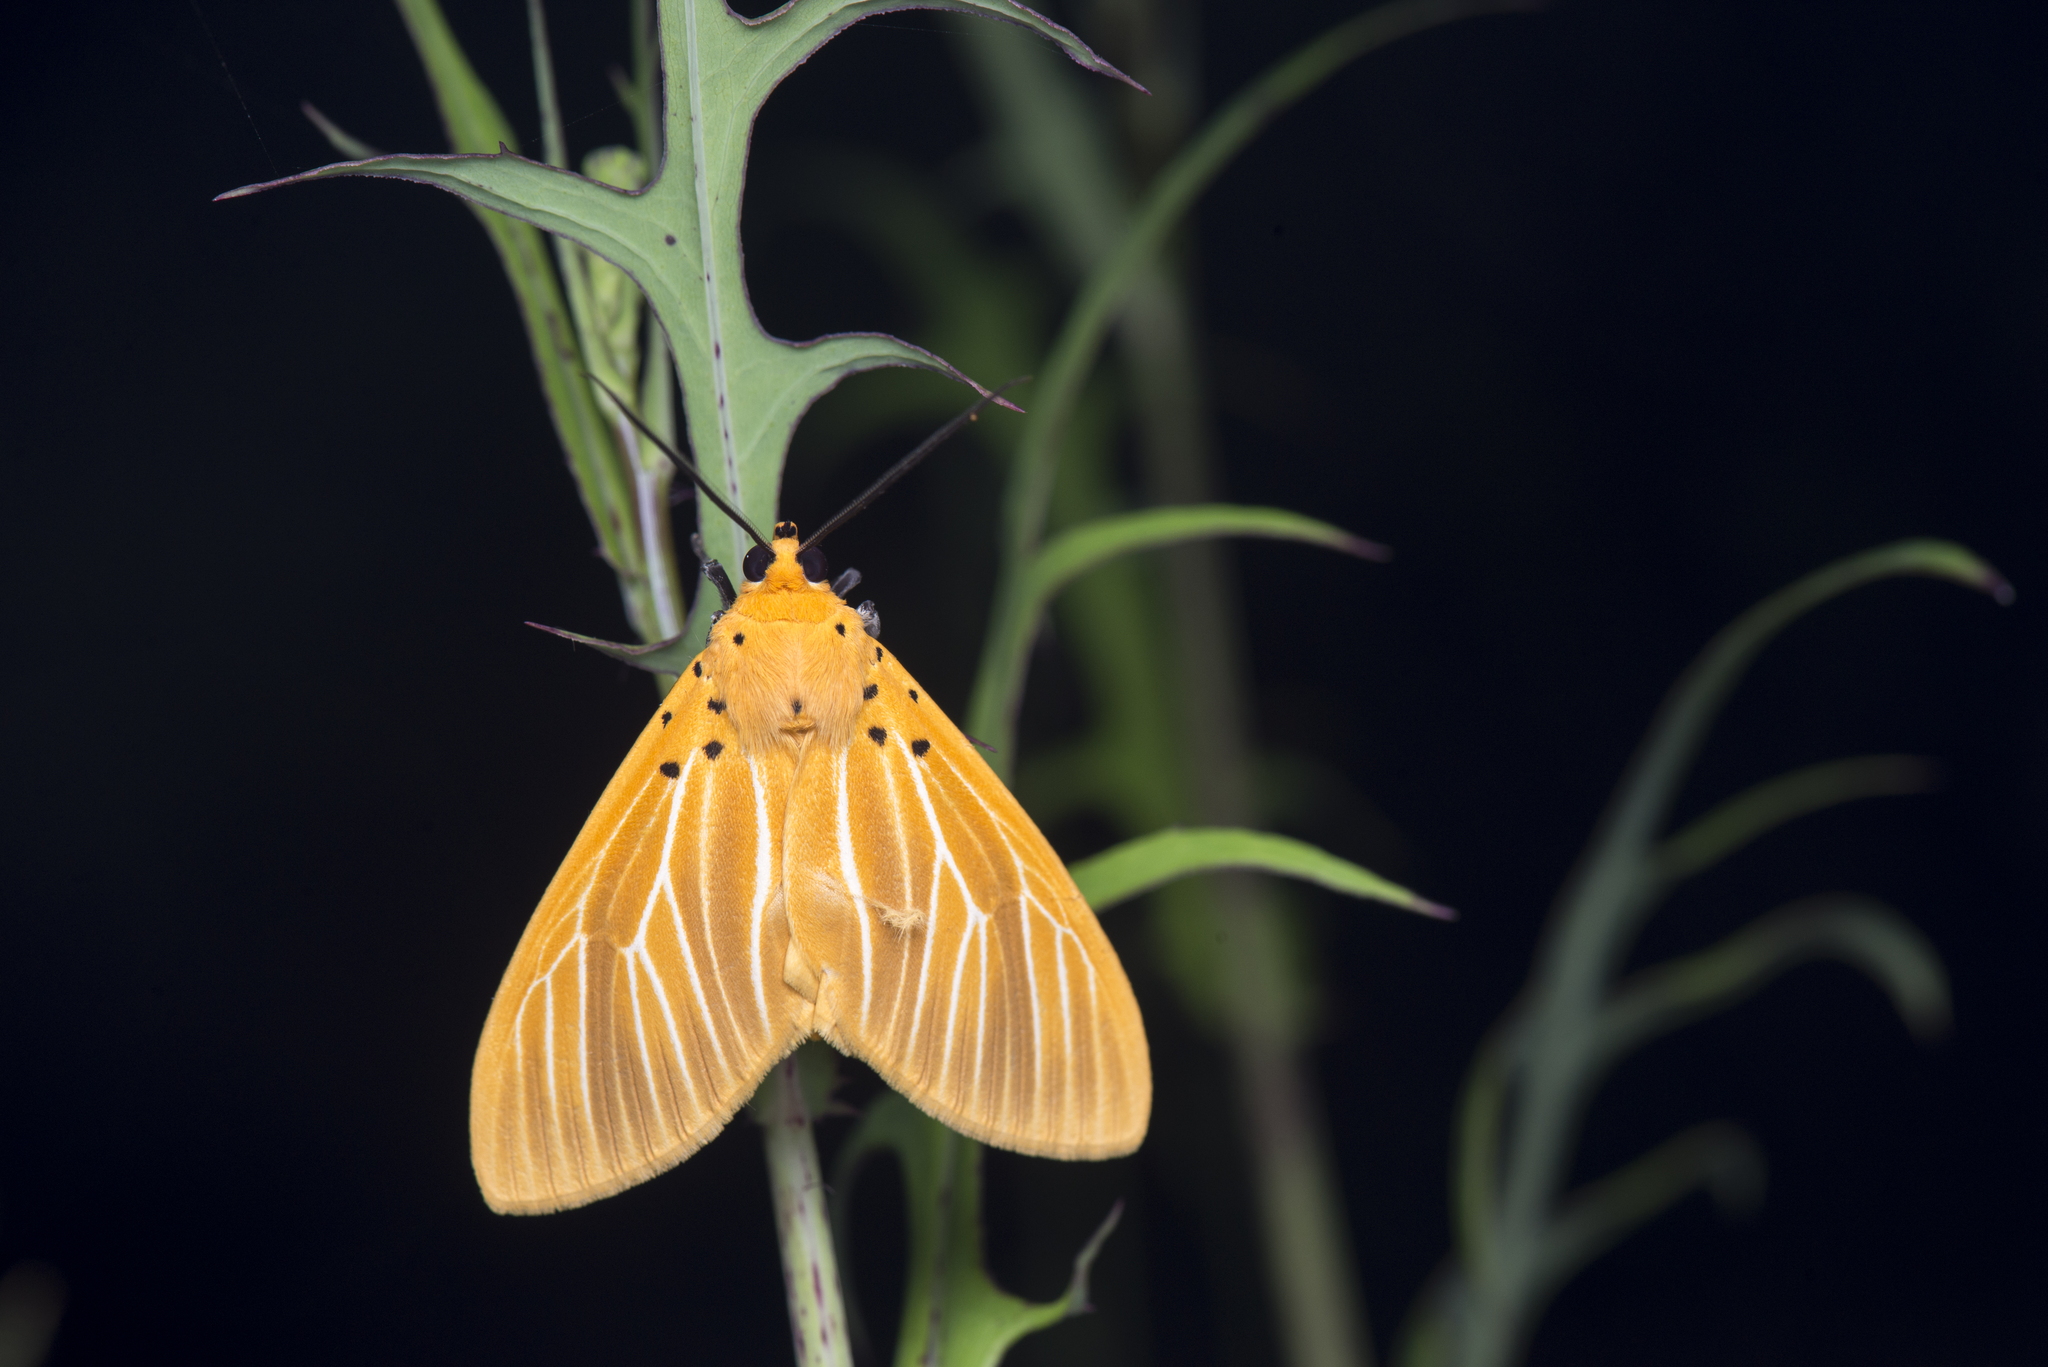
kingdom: Animalia
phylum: Arthropoda
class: Insecta
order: Lepidoptera
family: Erebidae
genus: Asota
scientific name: Asota egens
